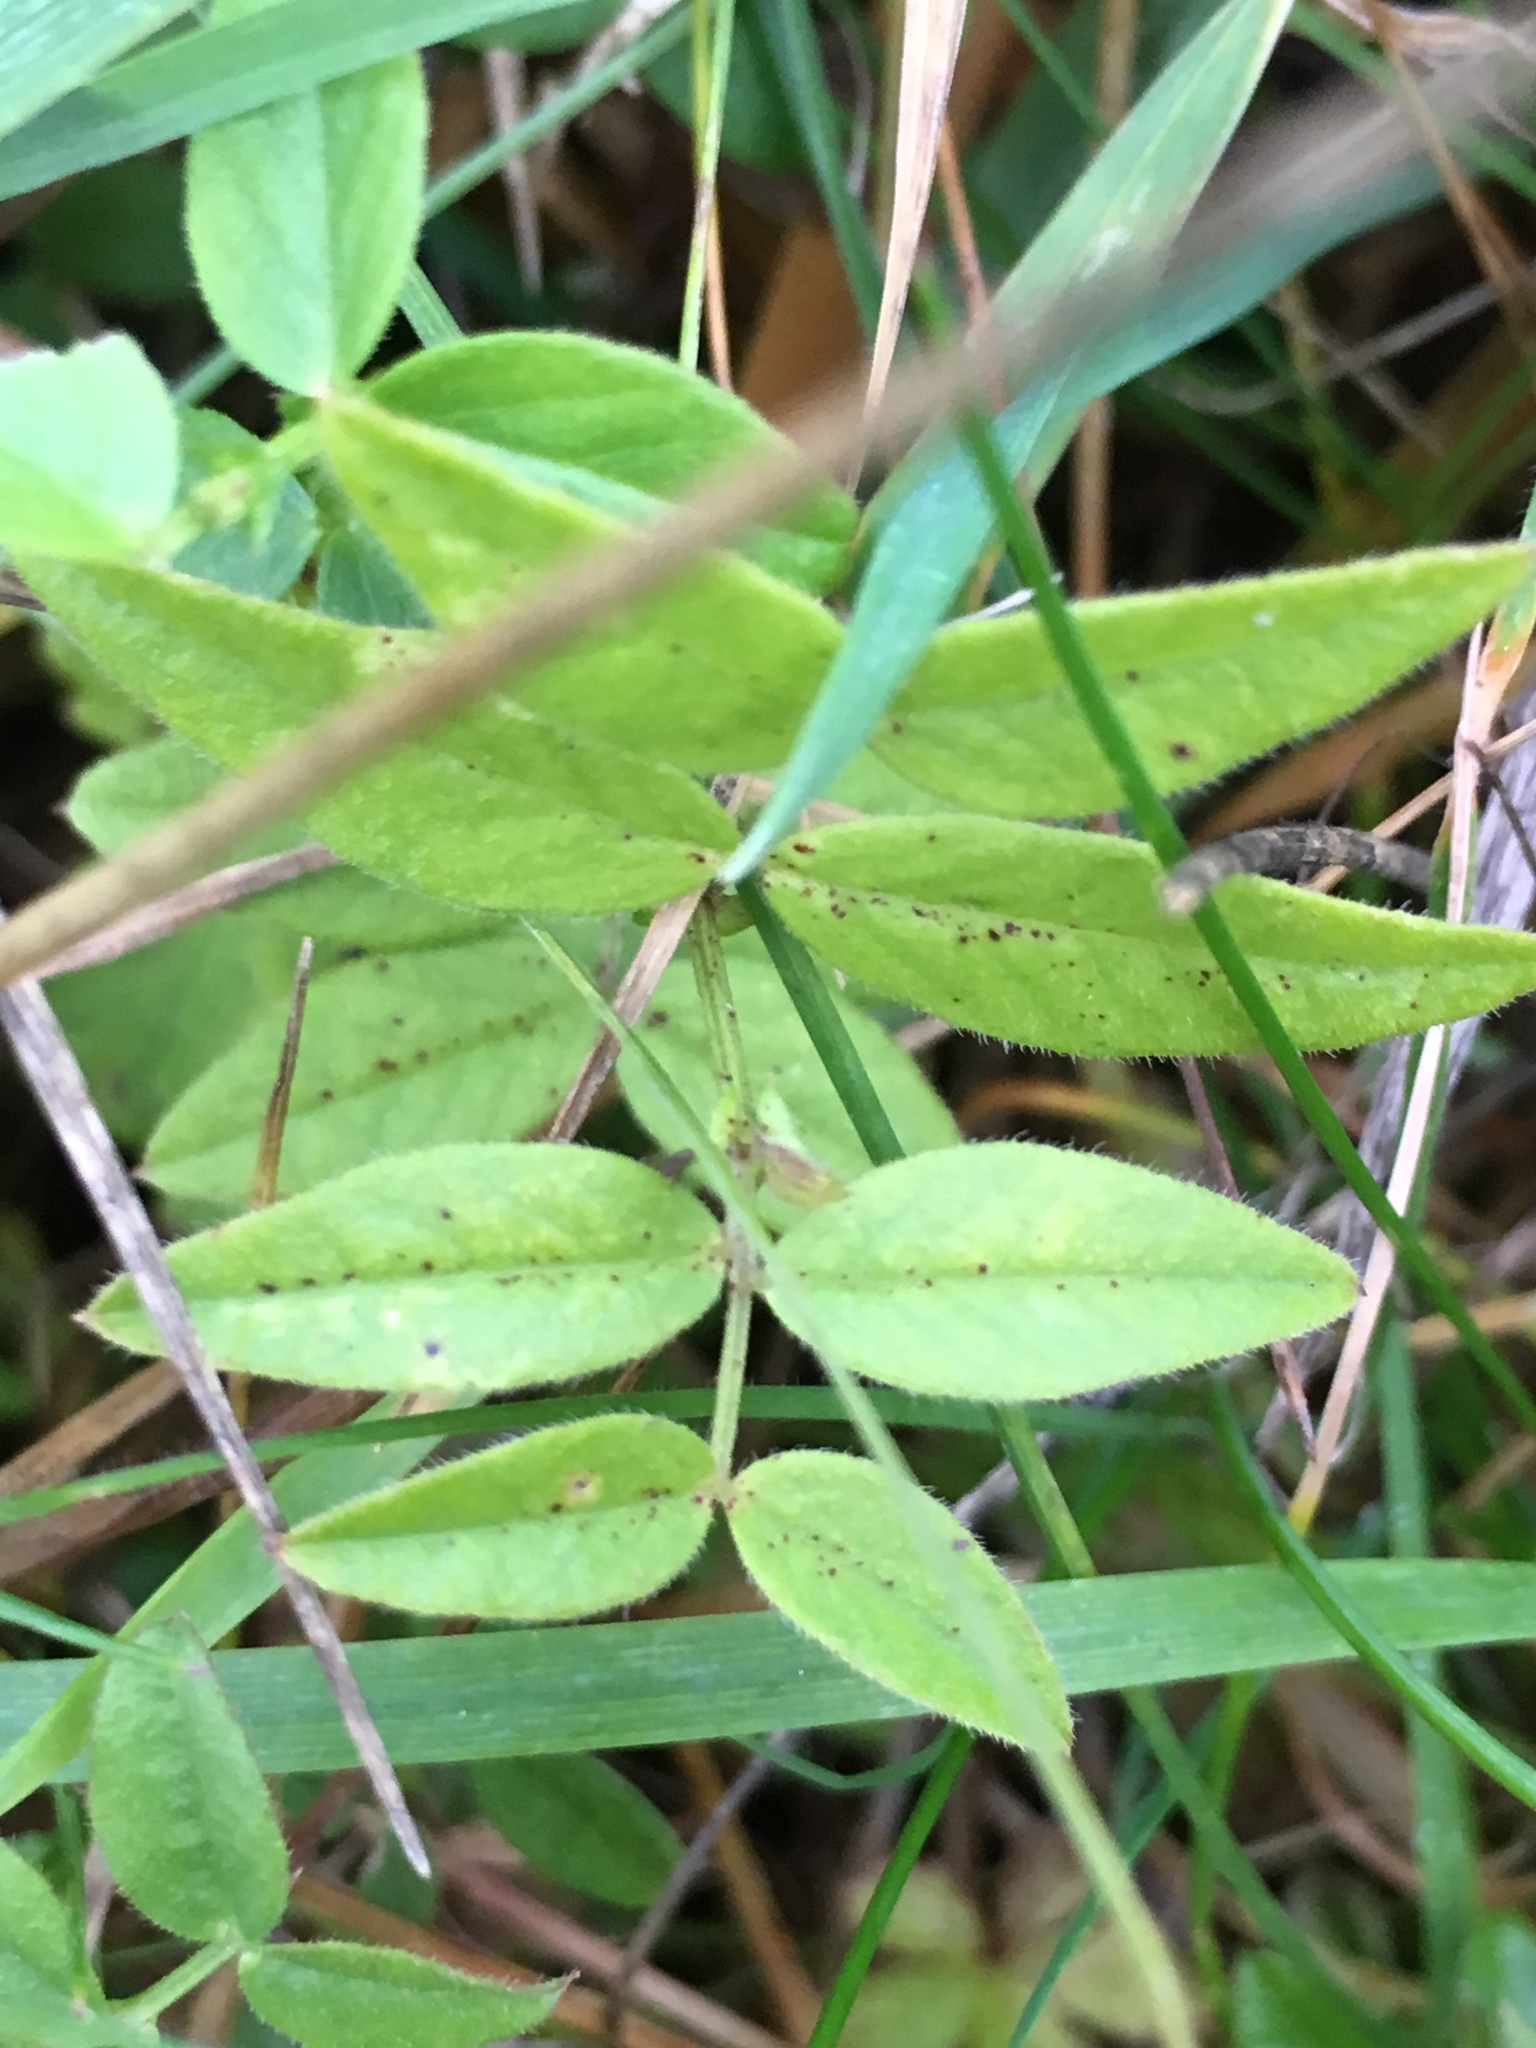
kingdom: Plantae
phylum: Tracheophyta
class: Magnoliopsida
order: Fabales
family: Fabaceae
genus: Vicia
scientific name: Vicia sepium
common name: Bush vetch
